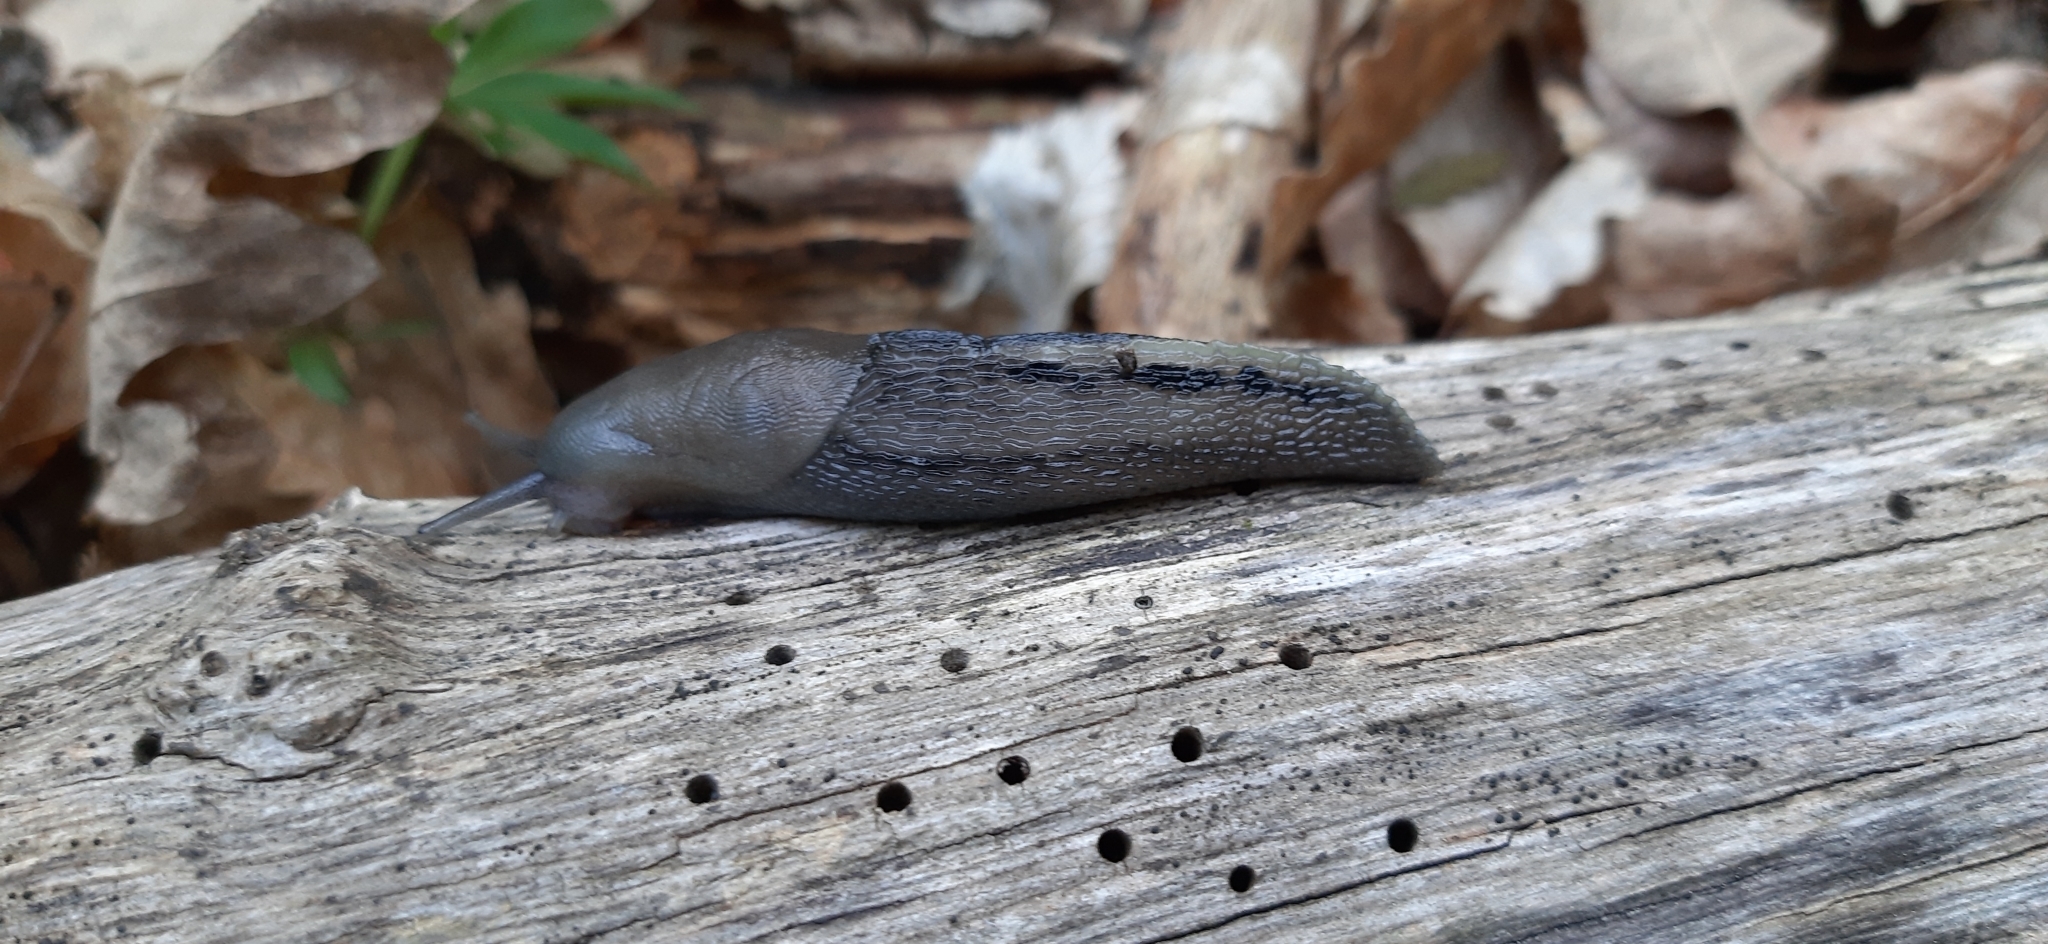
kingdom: Animalia
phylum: Mollusca
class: Gastropoda
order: Stylommatophora
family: Limacidae
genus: Limax
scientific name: Limax cinereoniger
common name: Ash-black slug
